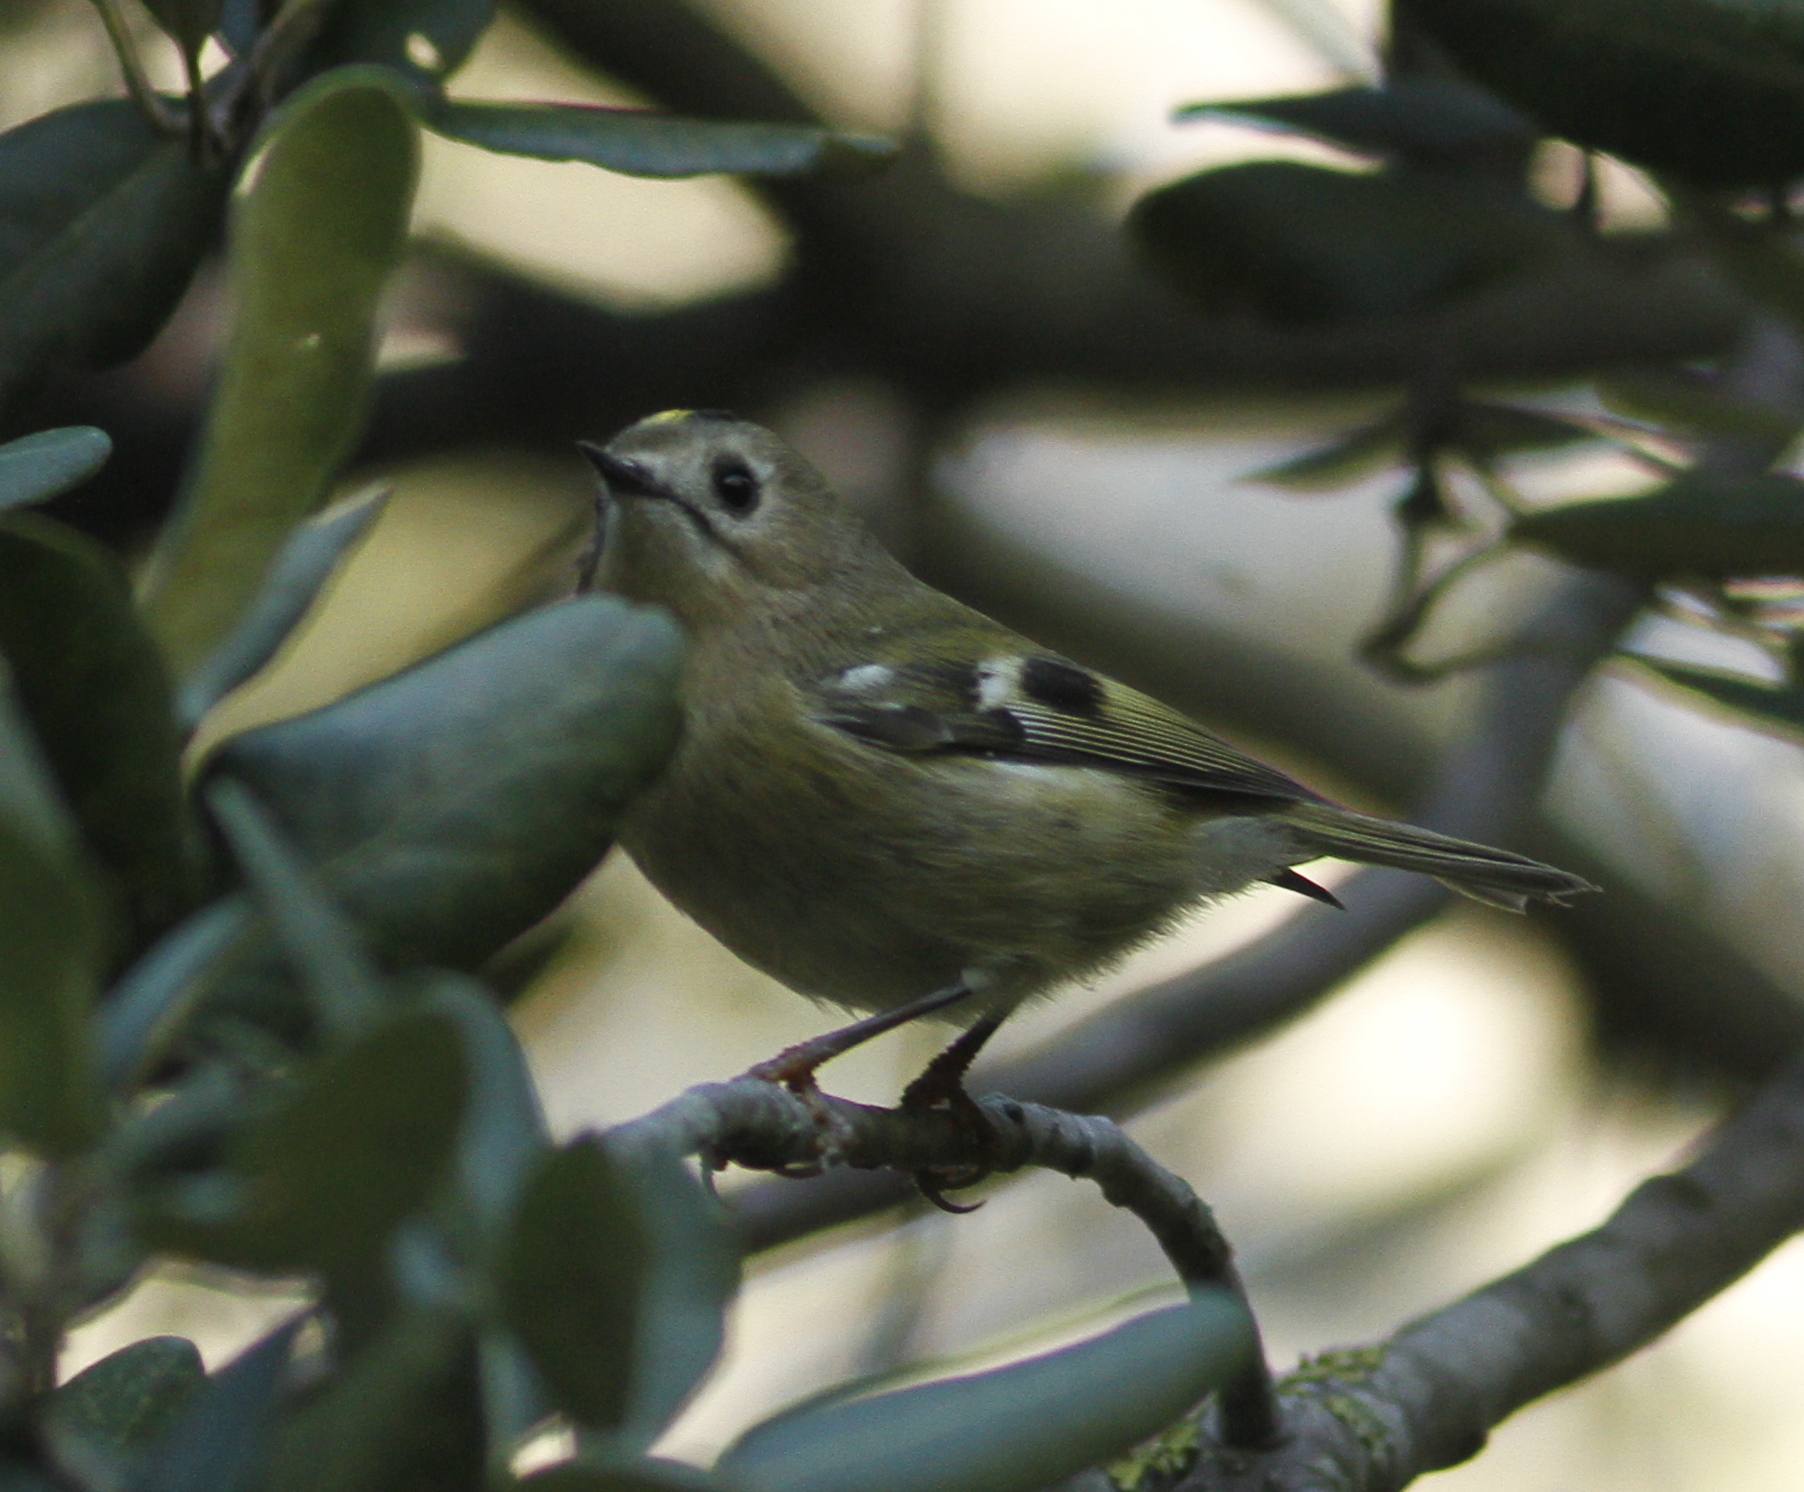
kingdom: Animalia
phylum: Chordata
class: Aves
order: Passeriformes
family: Regulidae
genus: Regulus
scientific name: Regulus regulus
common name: Goldcrest
